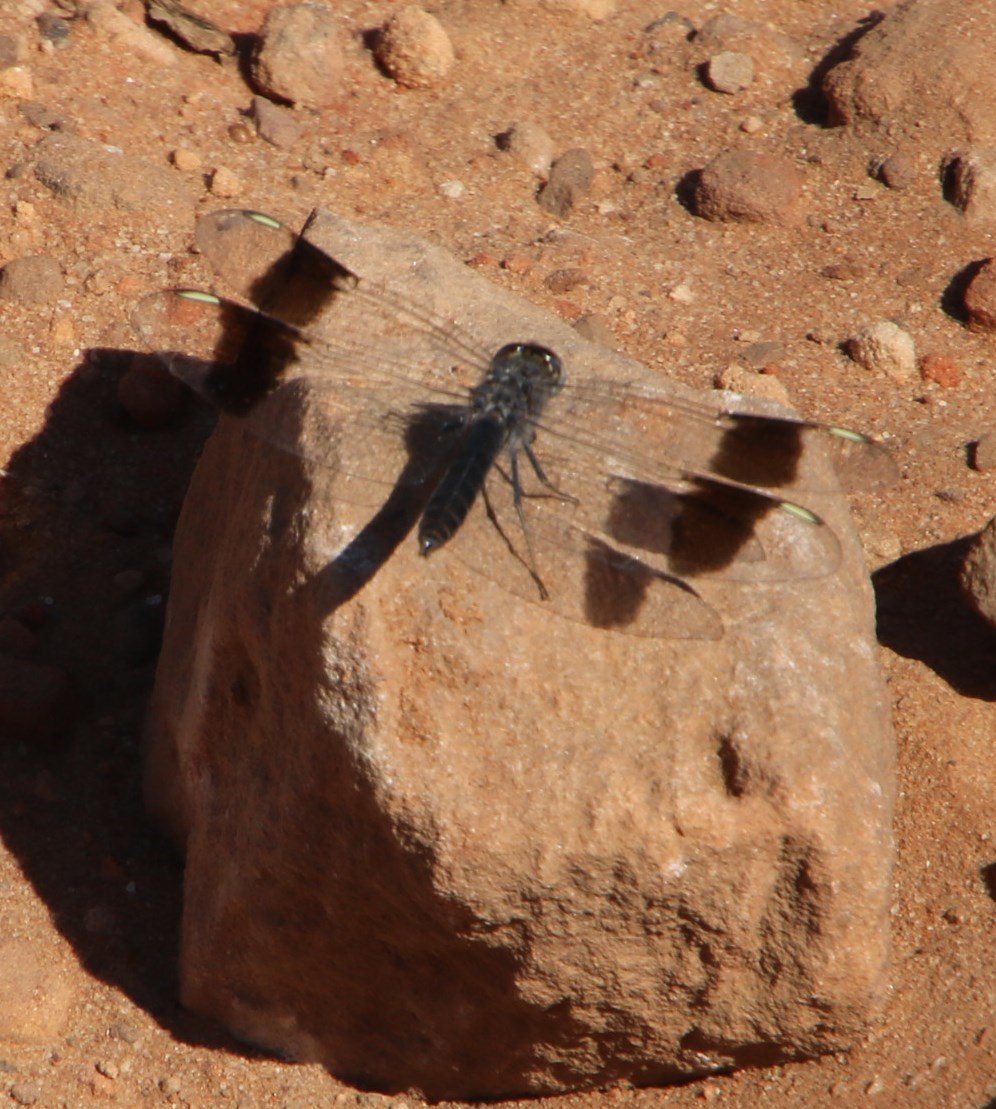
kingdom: Animalia
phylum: Arthropoda
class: Insecta
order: Odonata
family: Libellulidae
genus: Brachythemis
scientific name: Brachythemis leucosticta
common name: Banded groundling
